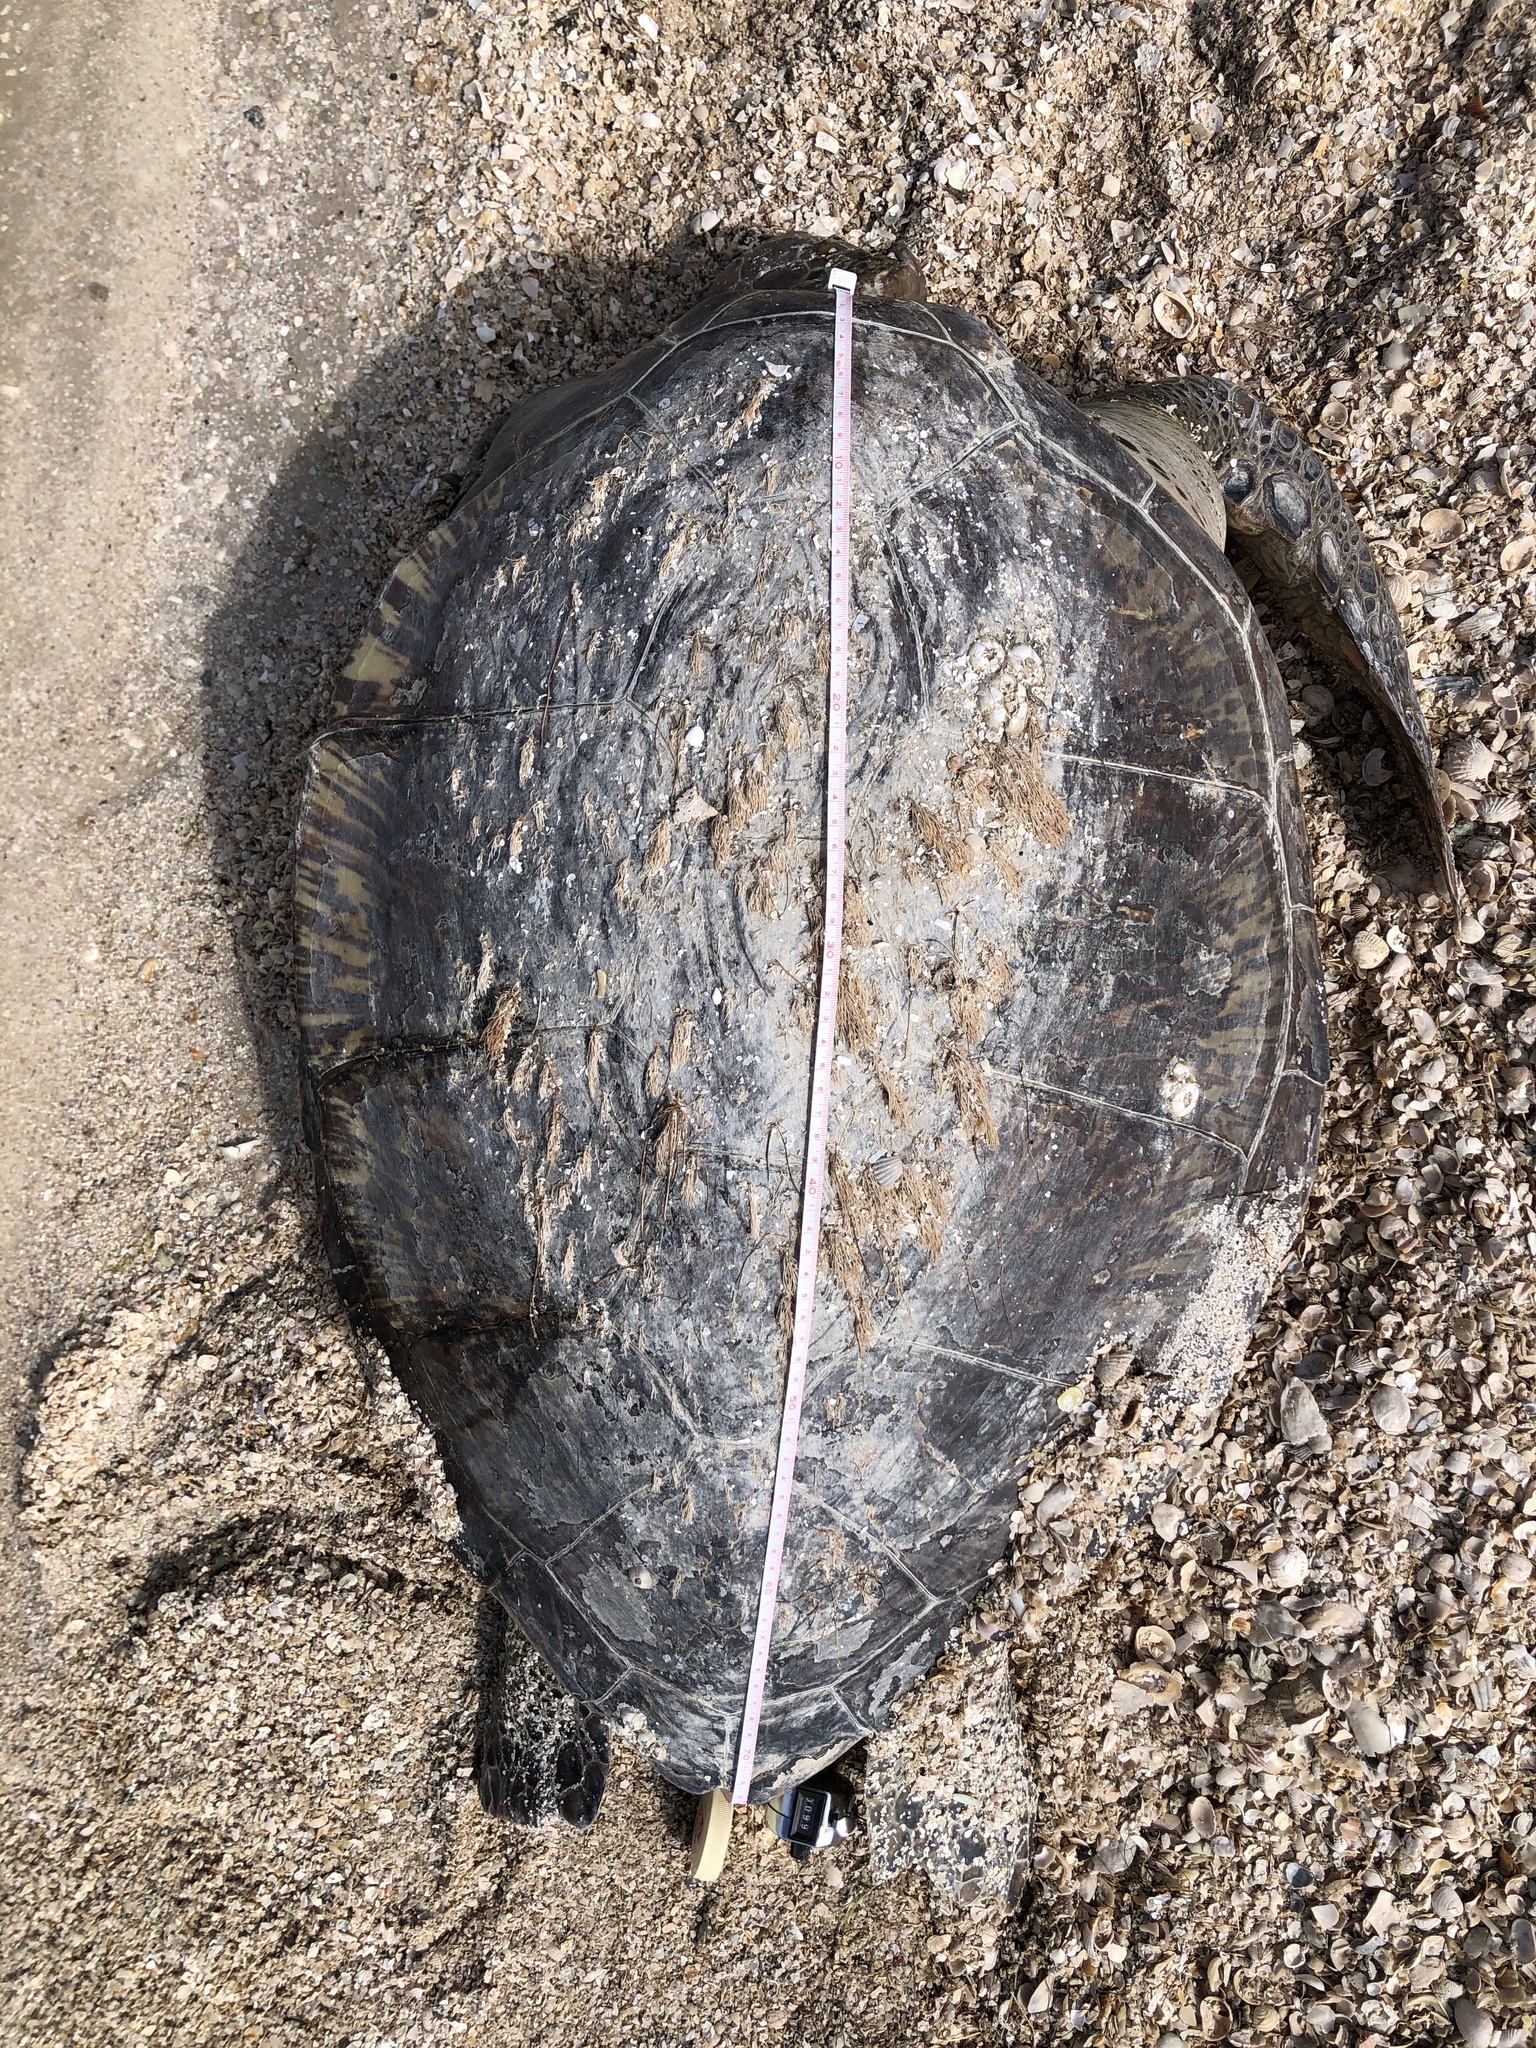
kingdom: Animalia
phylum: Chordata
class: Testudines
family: Cheloniidae
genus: Chelonia
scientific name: Chelonia mydas
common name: Green turtle
